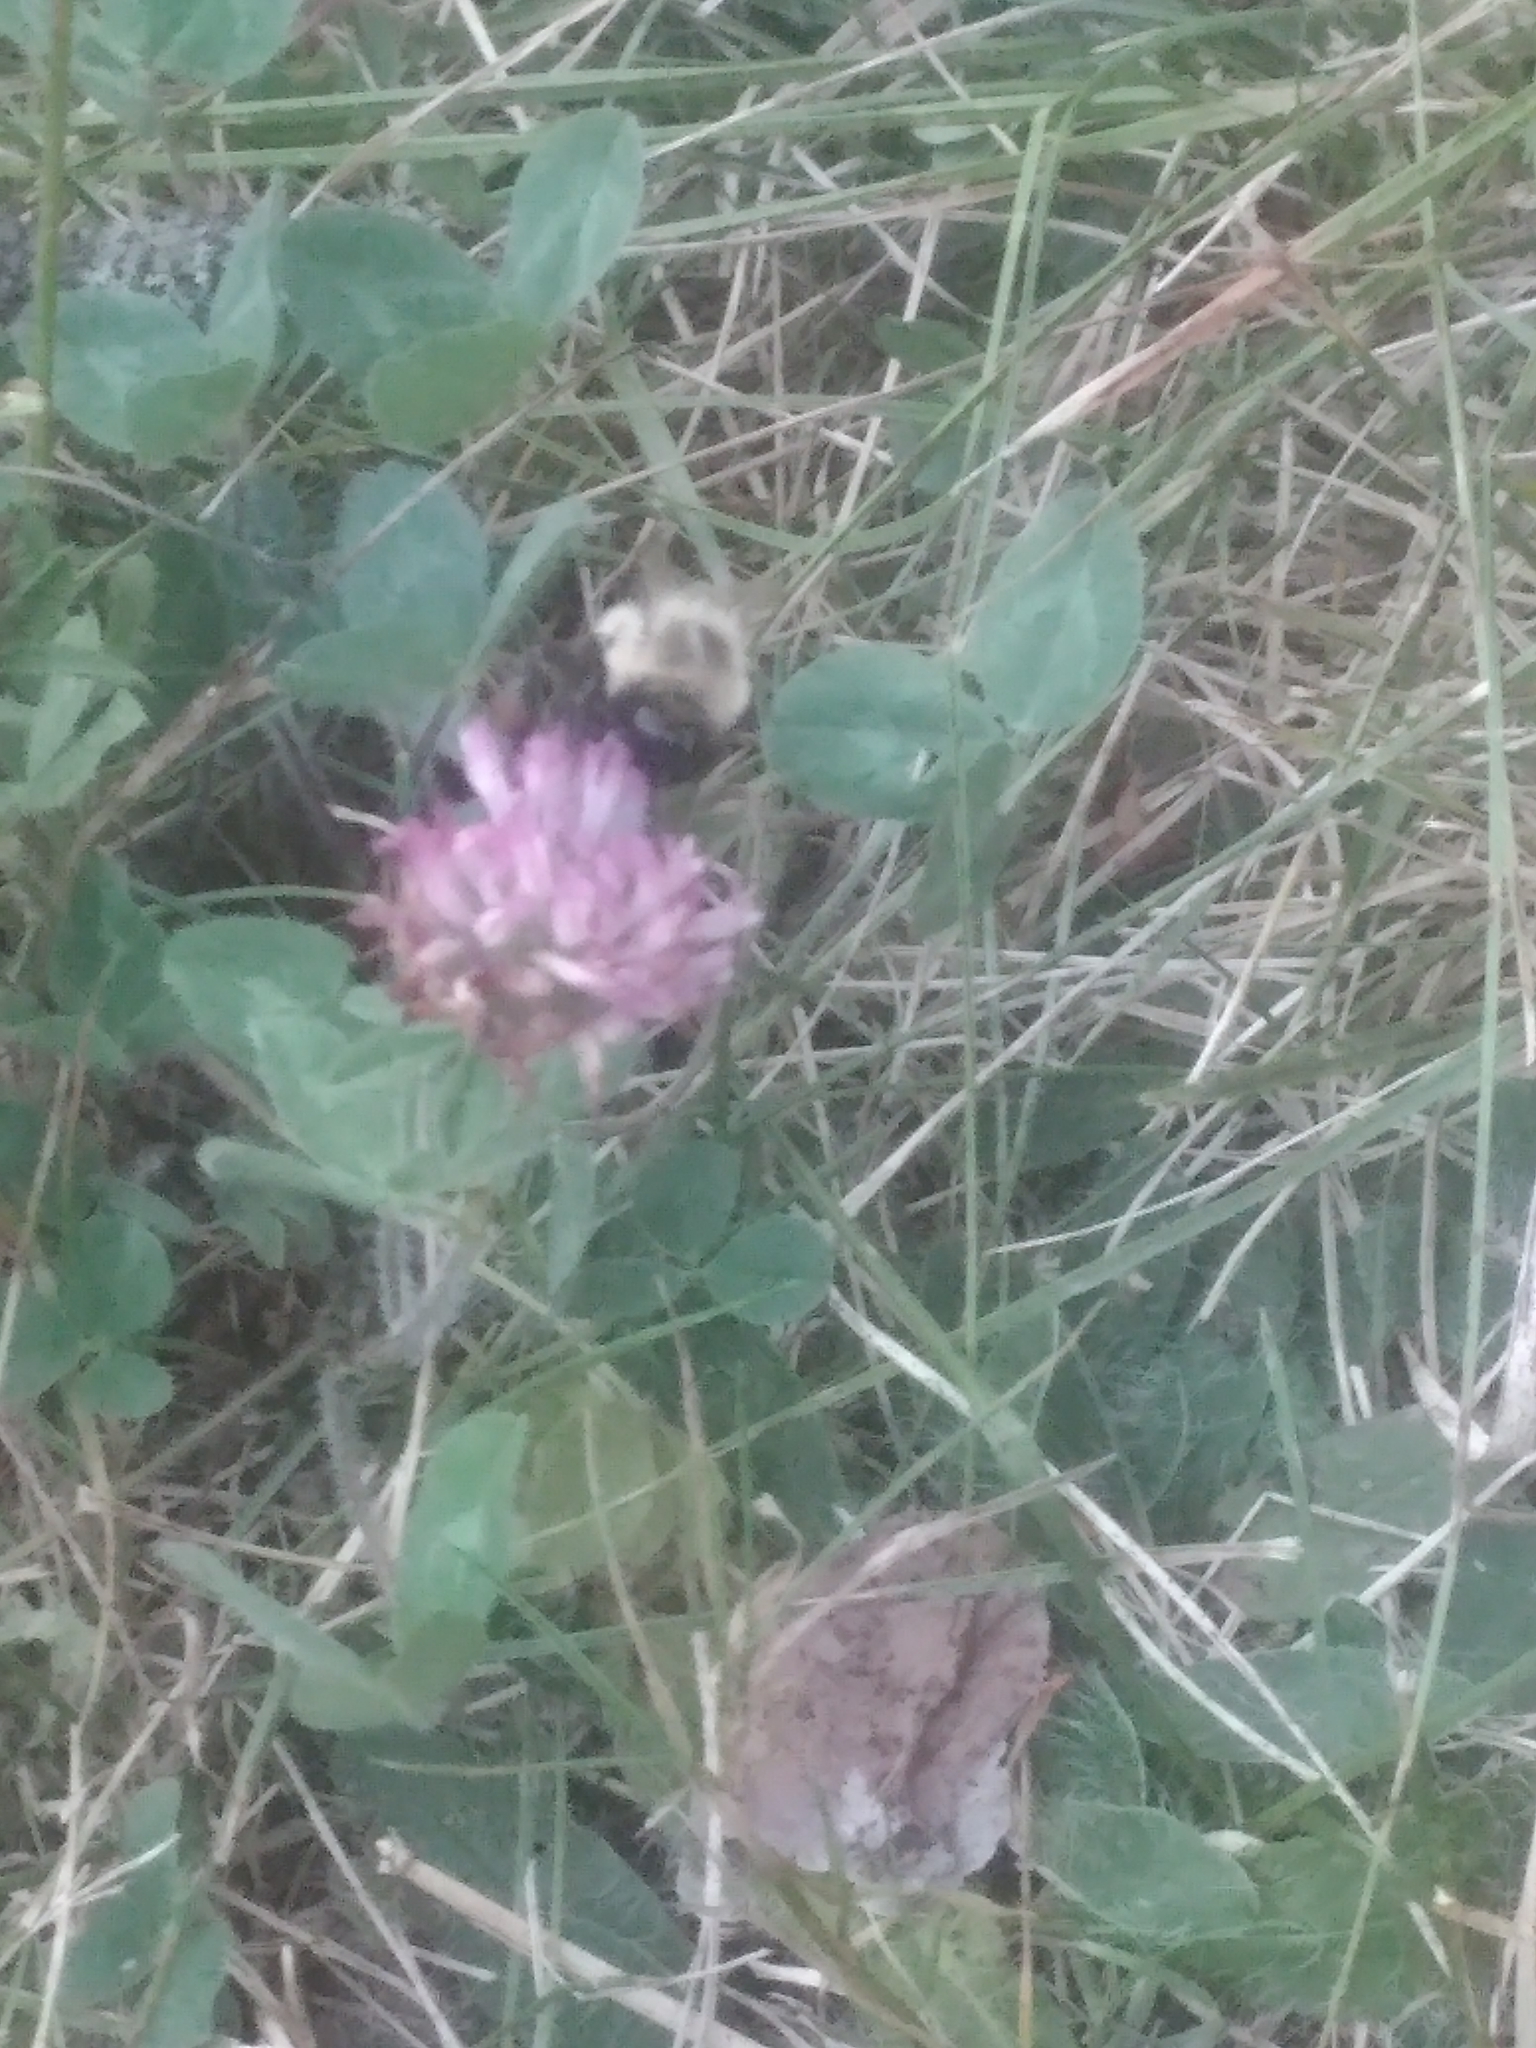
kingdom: Animalia
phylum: Arthropoda
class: Insecta
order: Hymenoptera
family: Apidae
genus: Bombus
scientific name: Bombus impatiens
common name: Common eastern bumble bee
